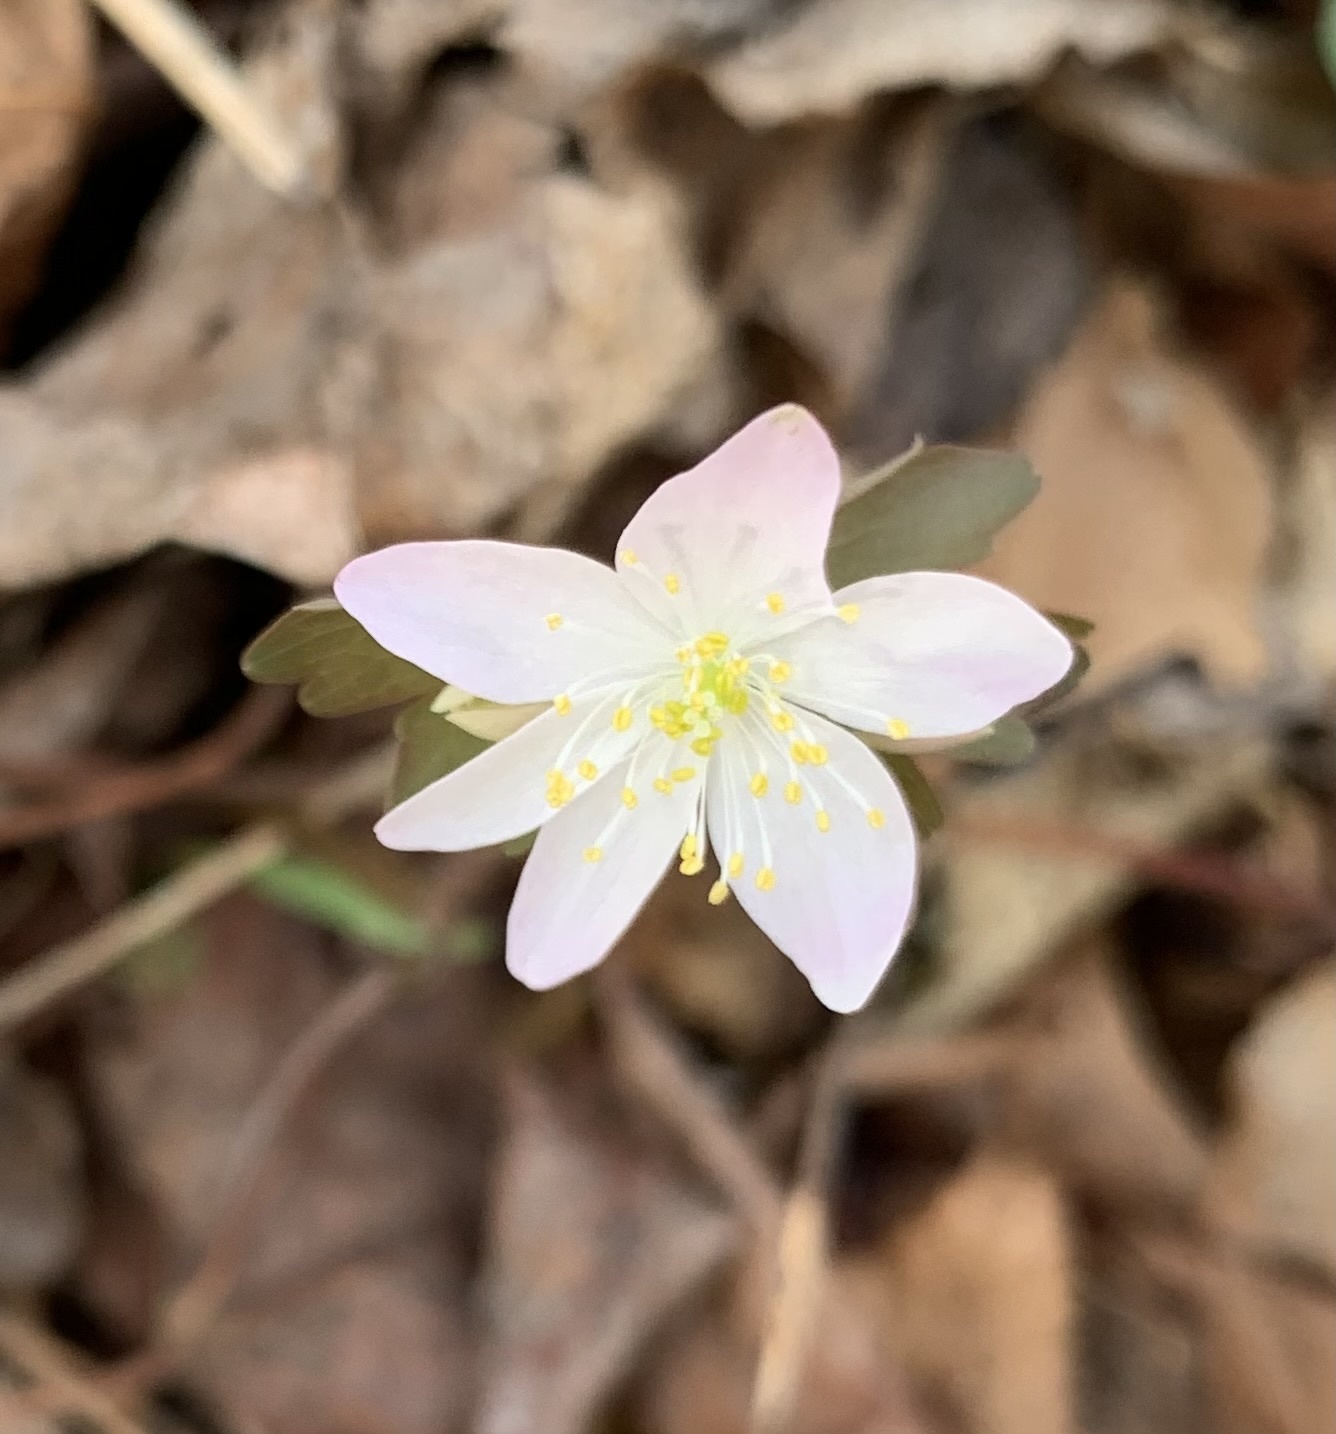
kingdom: Plantae
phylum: Tracheophyta
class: Magnoliopsida
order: Ranunculales
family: Ranunculaceae
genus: Thalictrum
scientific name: Thalictrum thalictroides
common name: Rue-anemone
